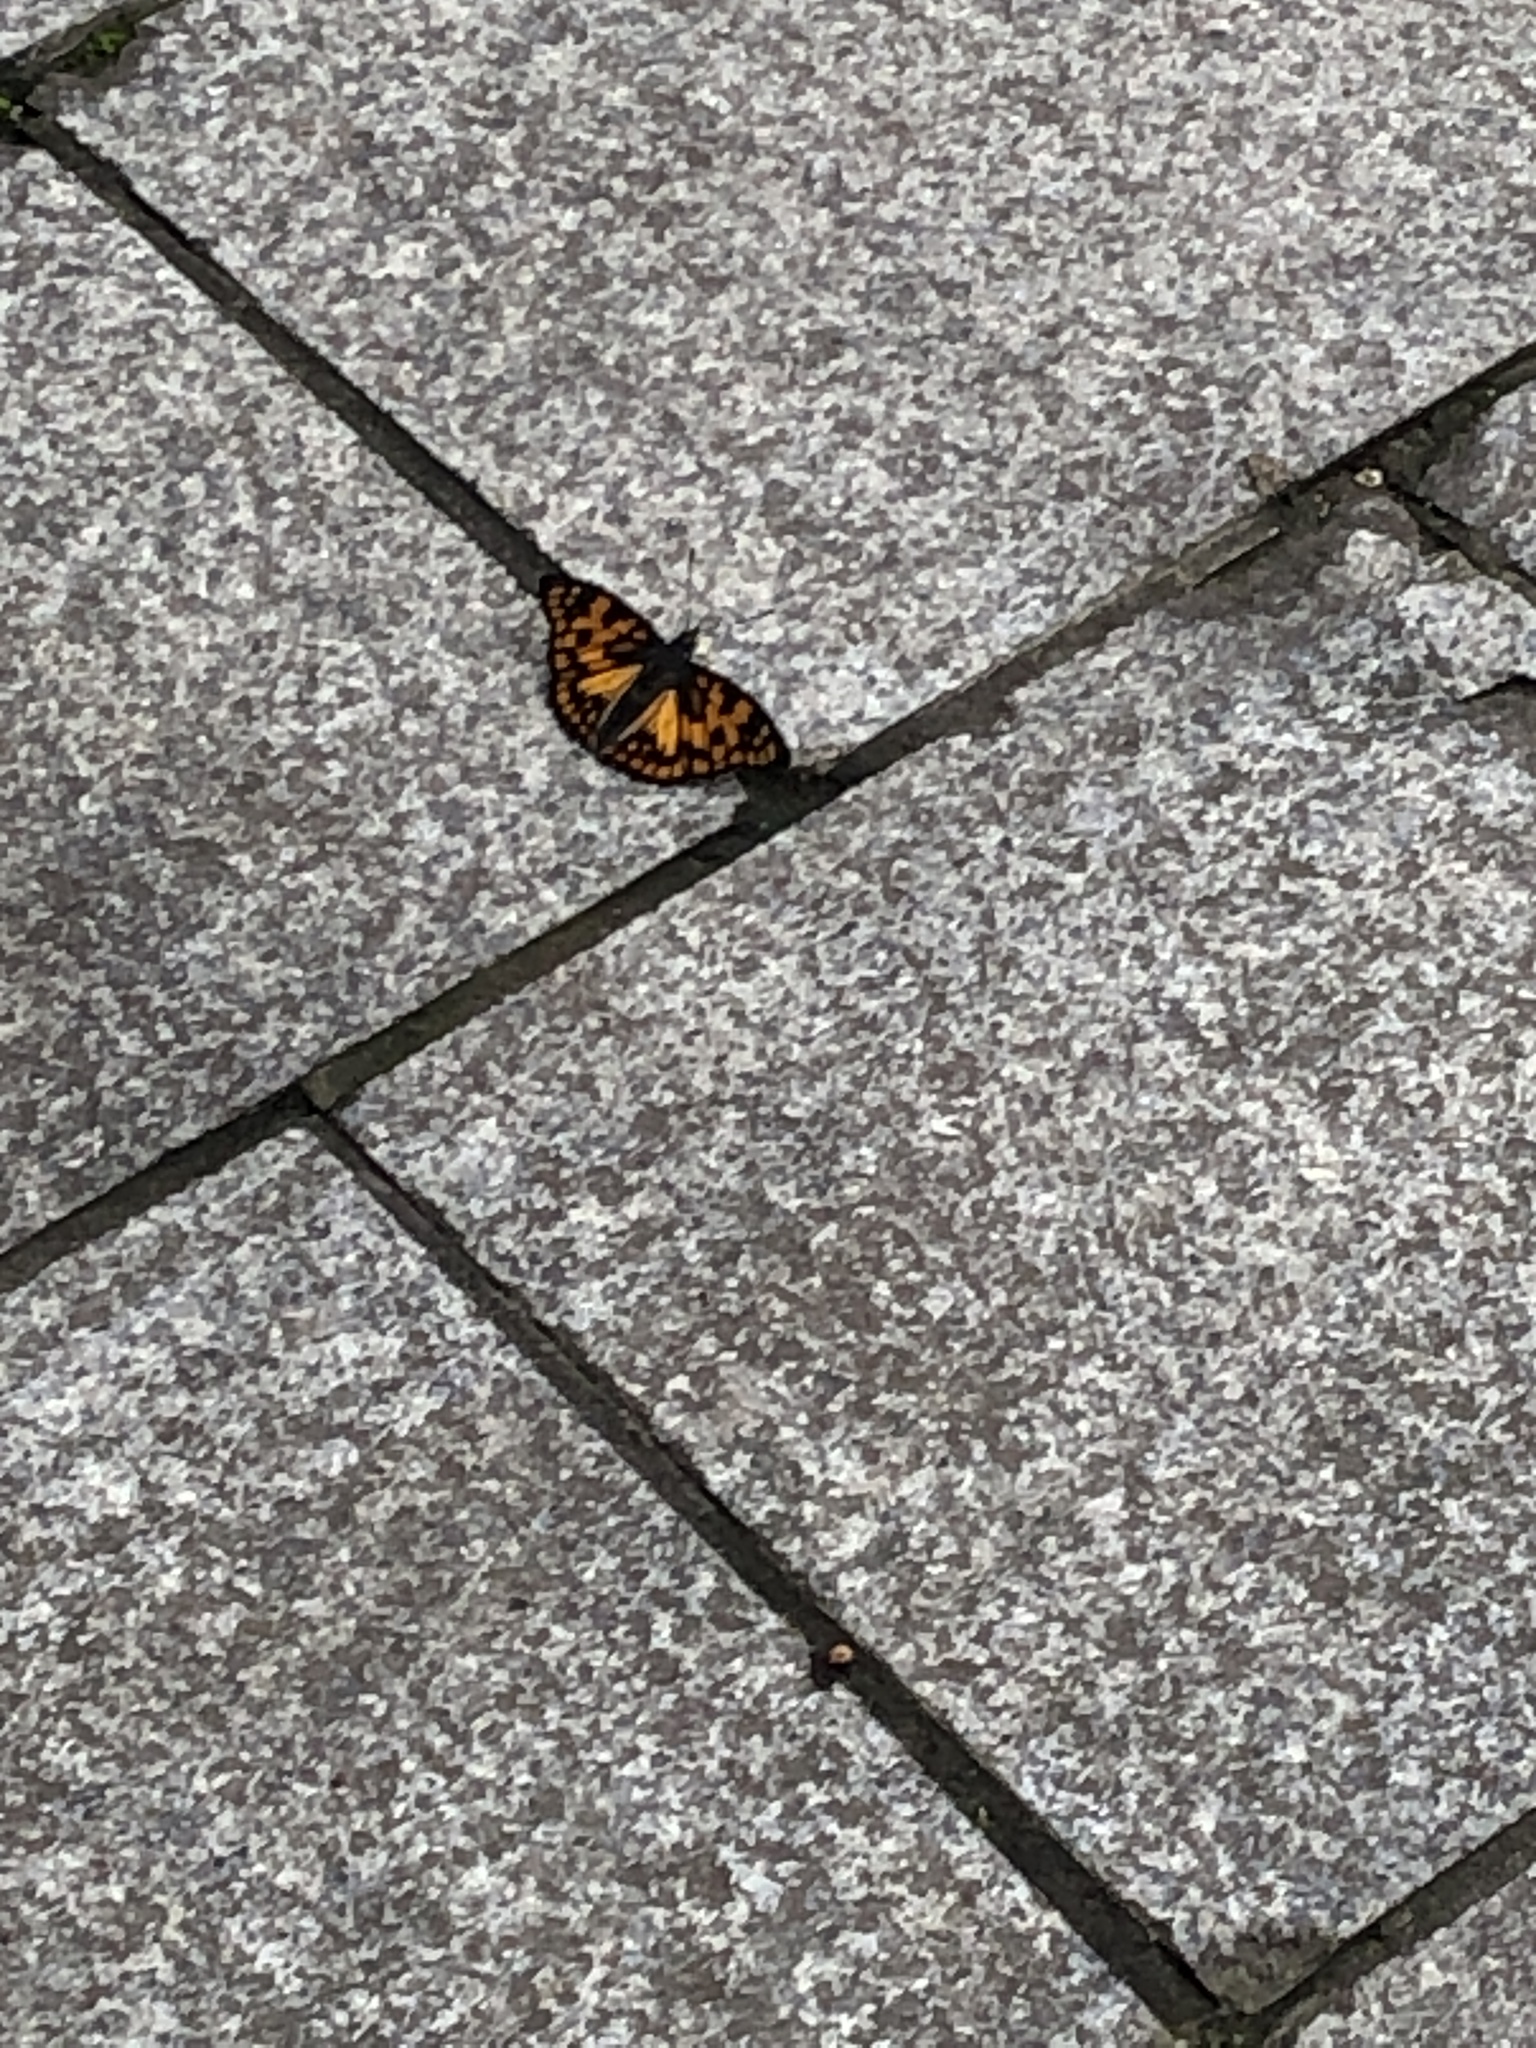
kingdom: Animalia
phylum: Arthropoda
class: Insecta
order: Lepidoptera
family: Nymphalidae
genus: Sephisa
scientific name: Sephisa dichroa
